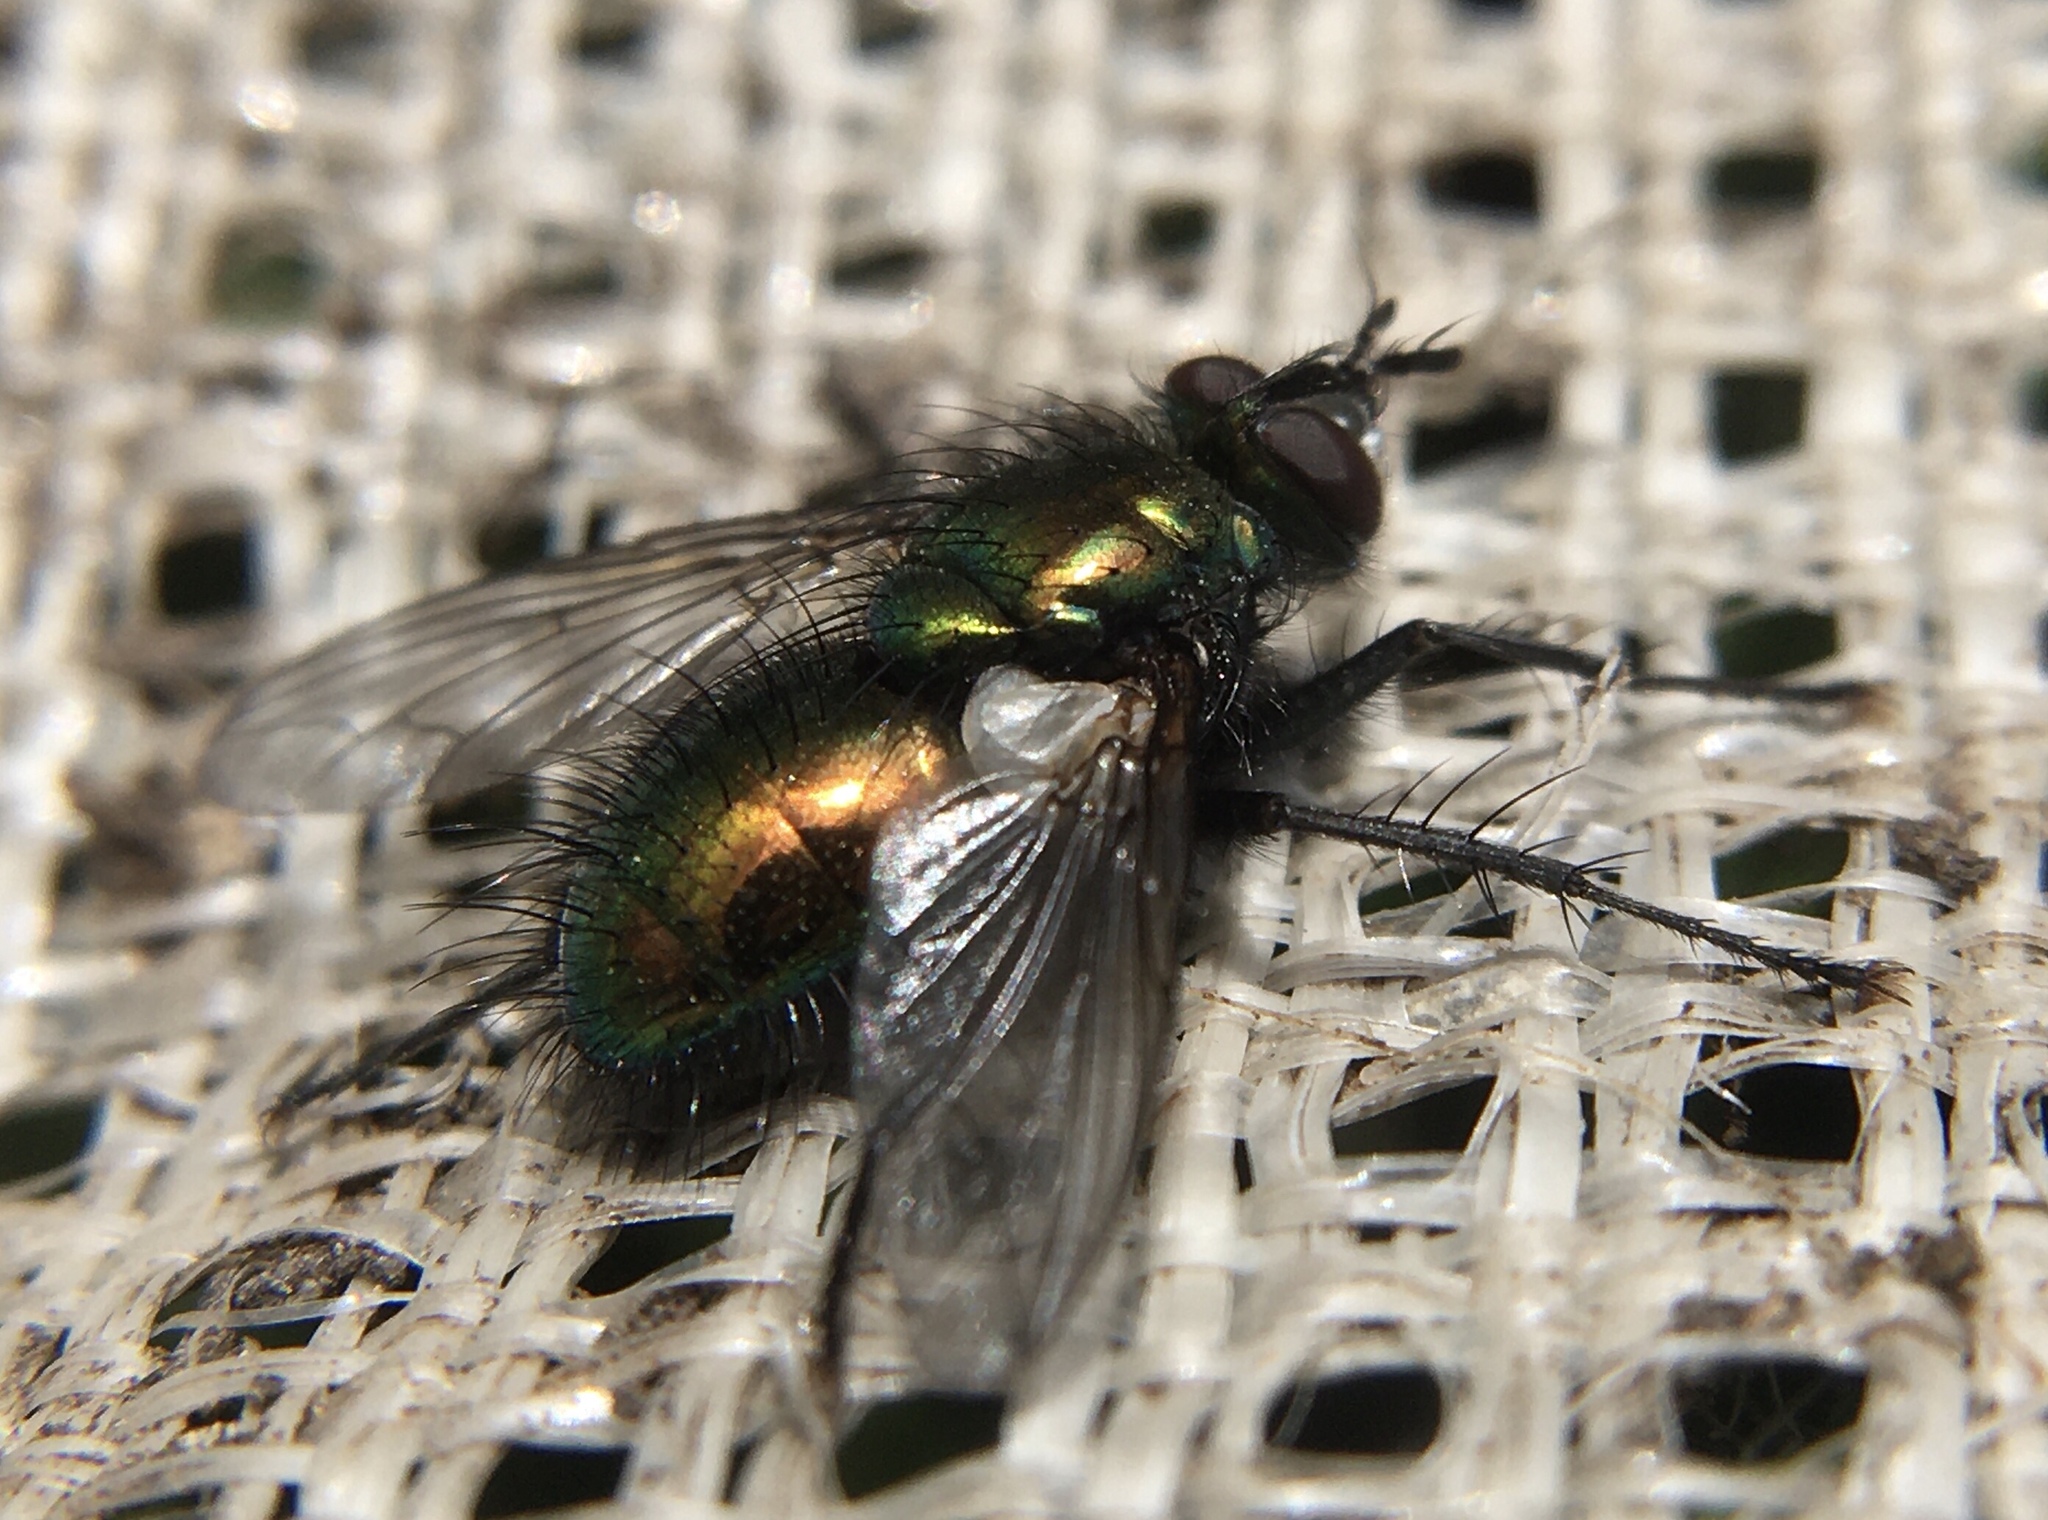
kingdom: Animalia
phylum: Arthropoda
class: Insecta
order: Diptera
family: Tachinidae
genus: Gymnocheta
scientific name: Gymnocheta viridis
